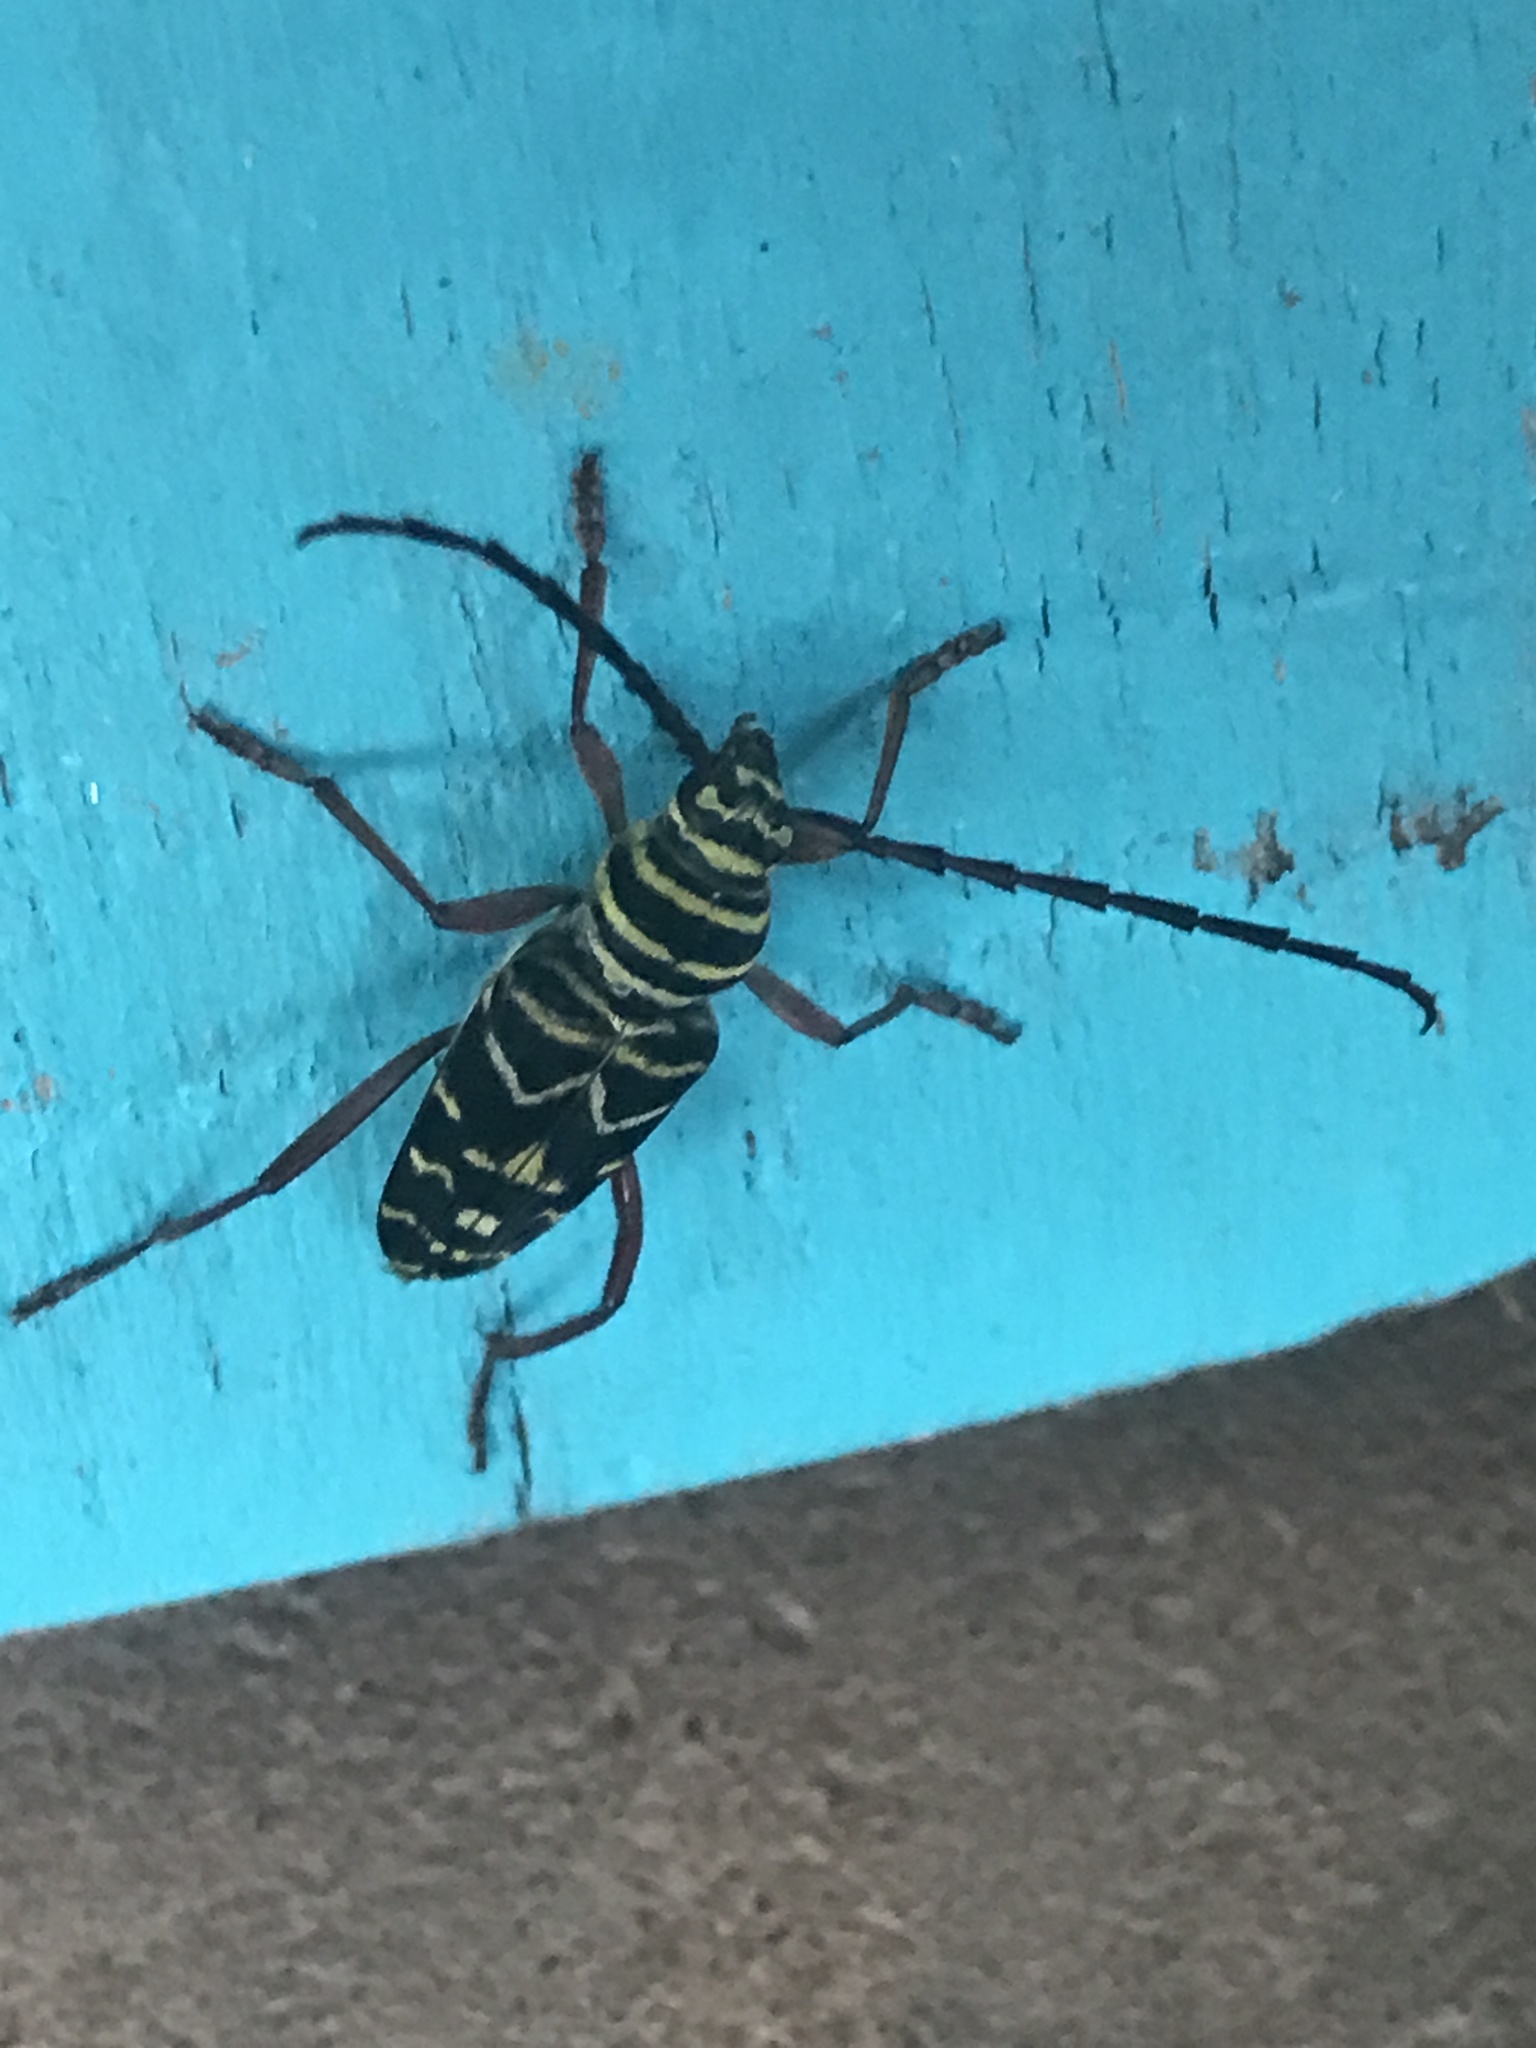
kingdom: Animalia
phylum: Arthropoda
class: Insecta
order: Coleoptera
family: Cerambycidae
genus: Megacyllene
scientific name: Megacyllene caryae
